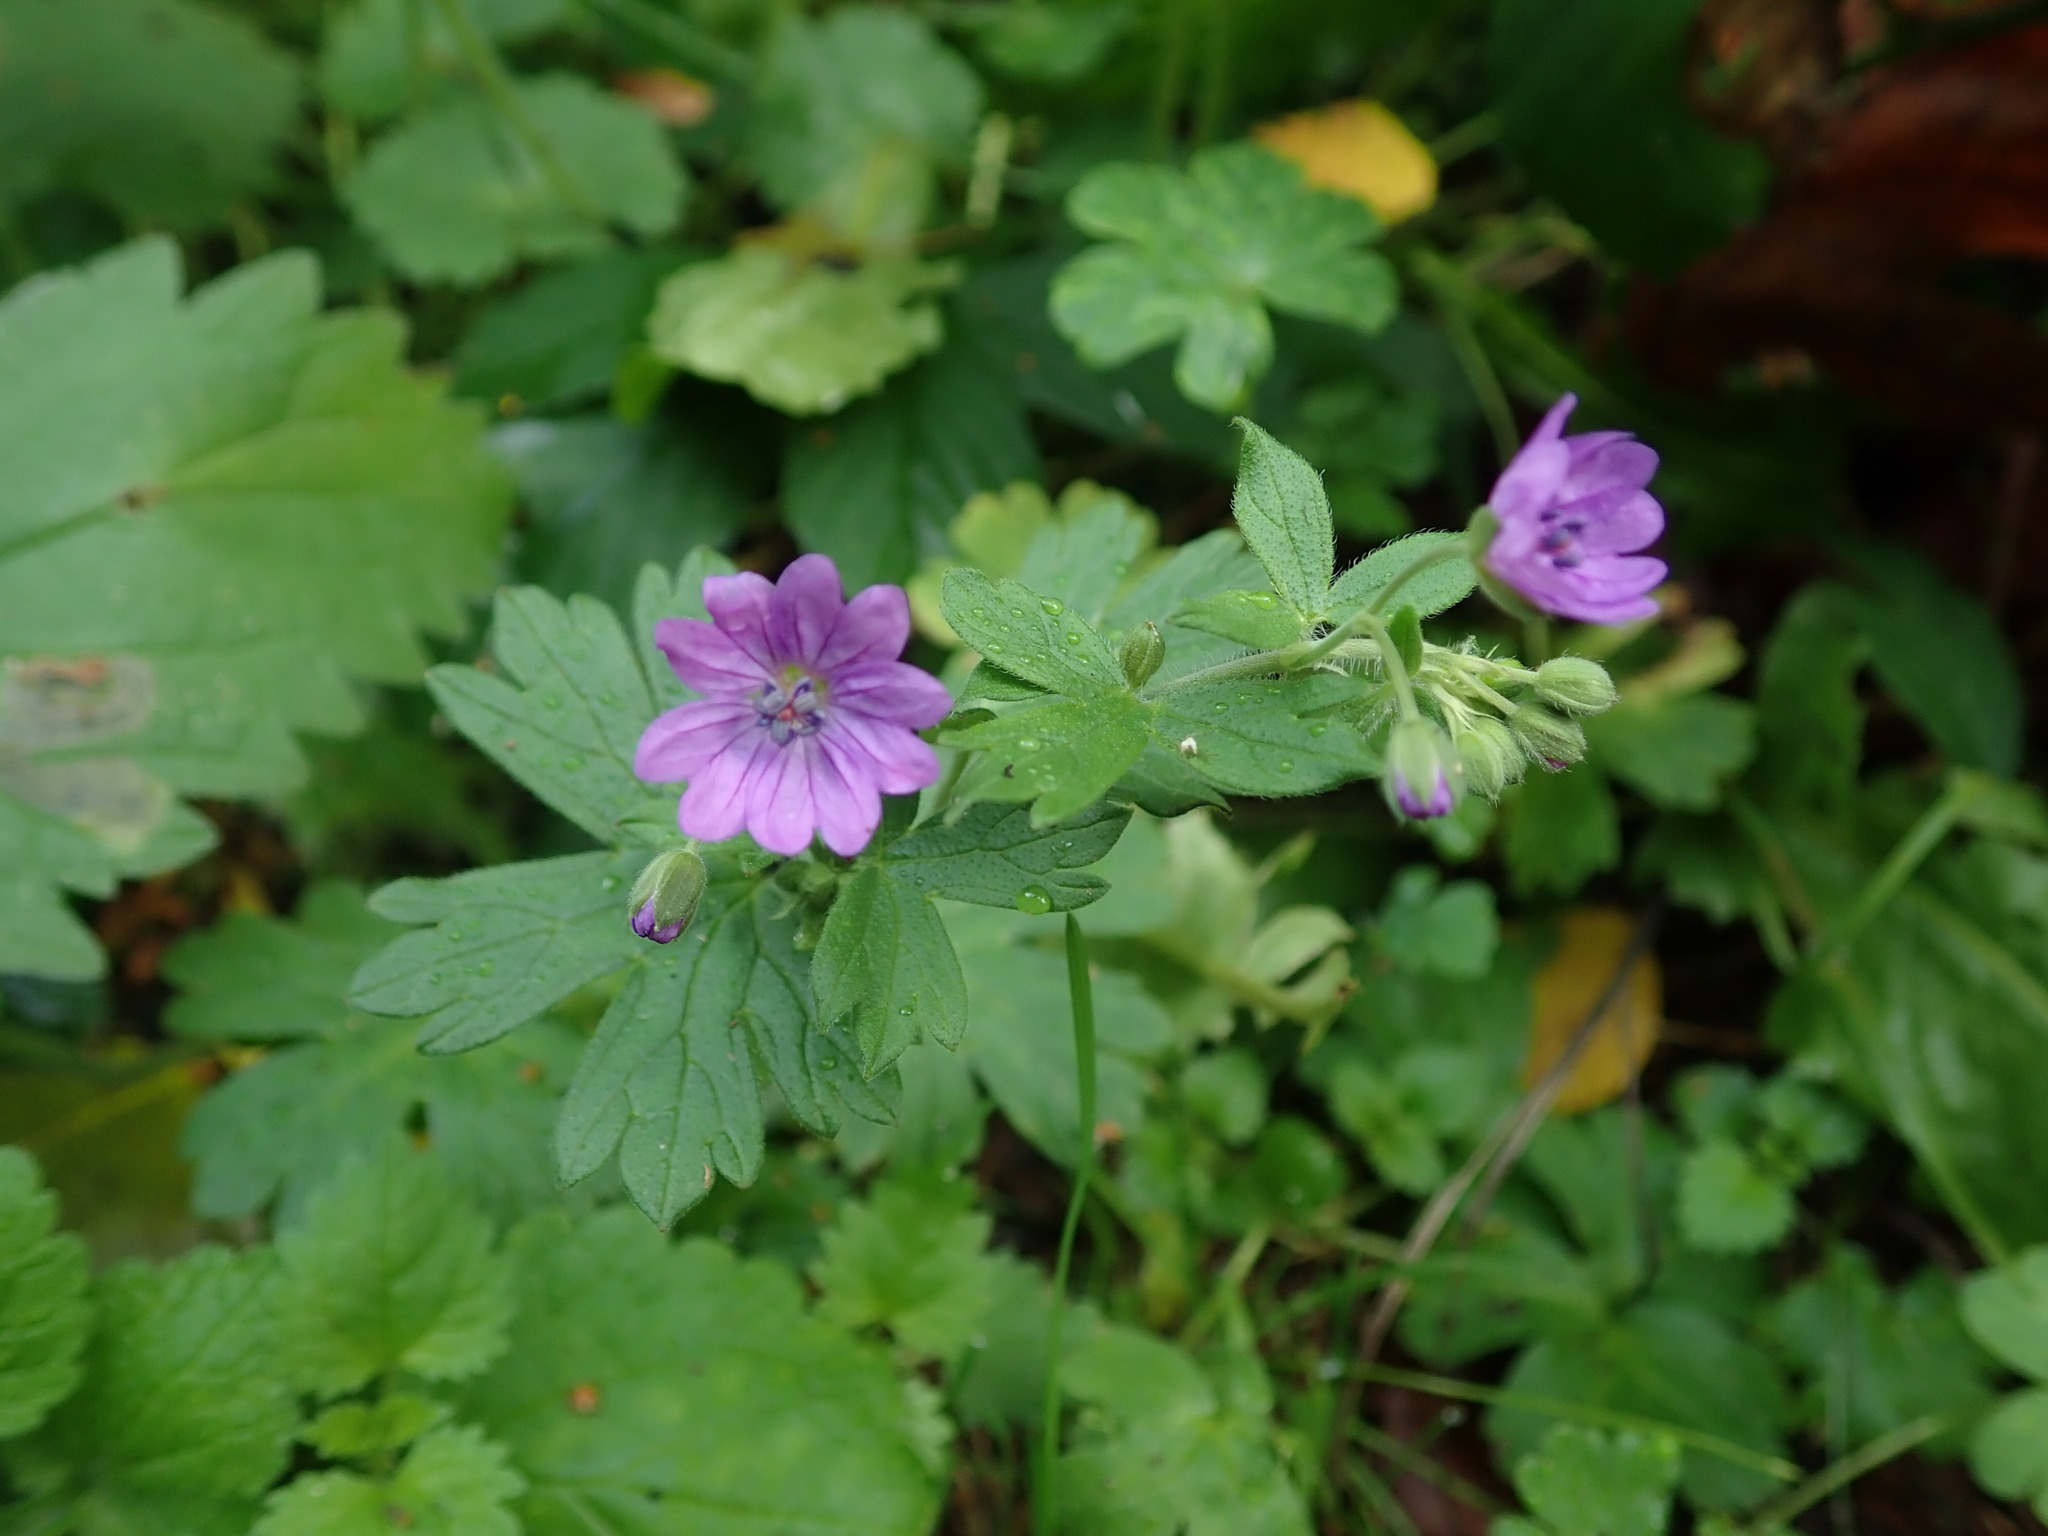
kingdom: Plantae
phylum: Tracheophyta
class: Magnoliopsida
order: Geraniales
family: Geraniaceae
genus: Geranium
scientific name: Geranium pyrenaicum
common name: Hedgerow crane's-bill
